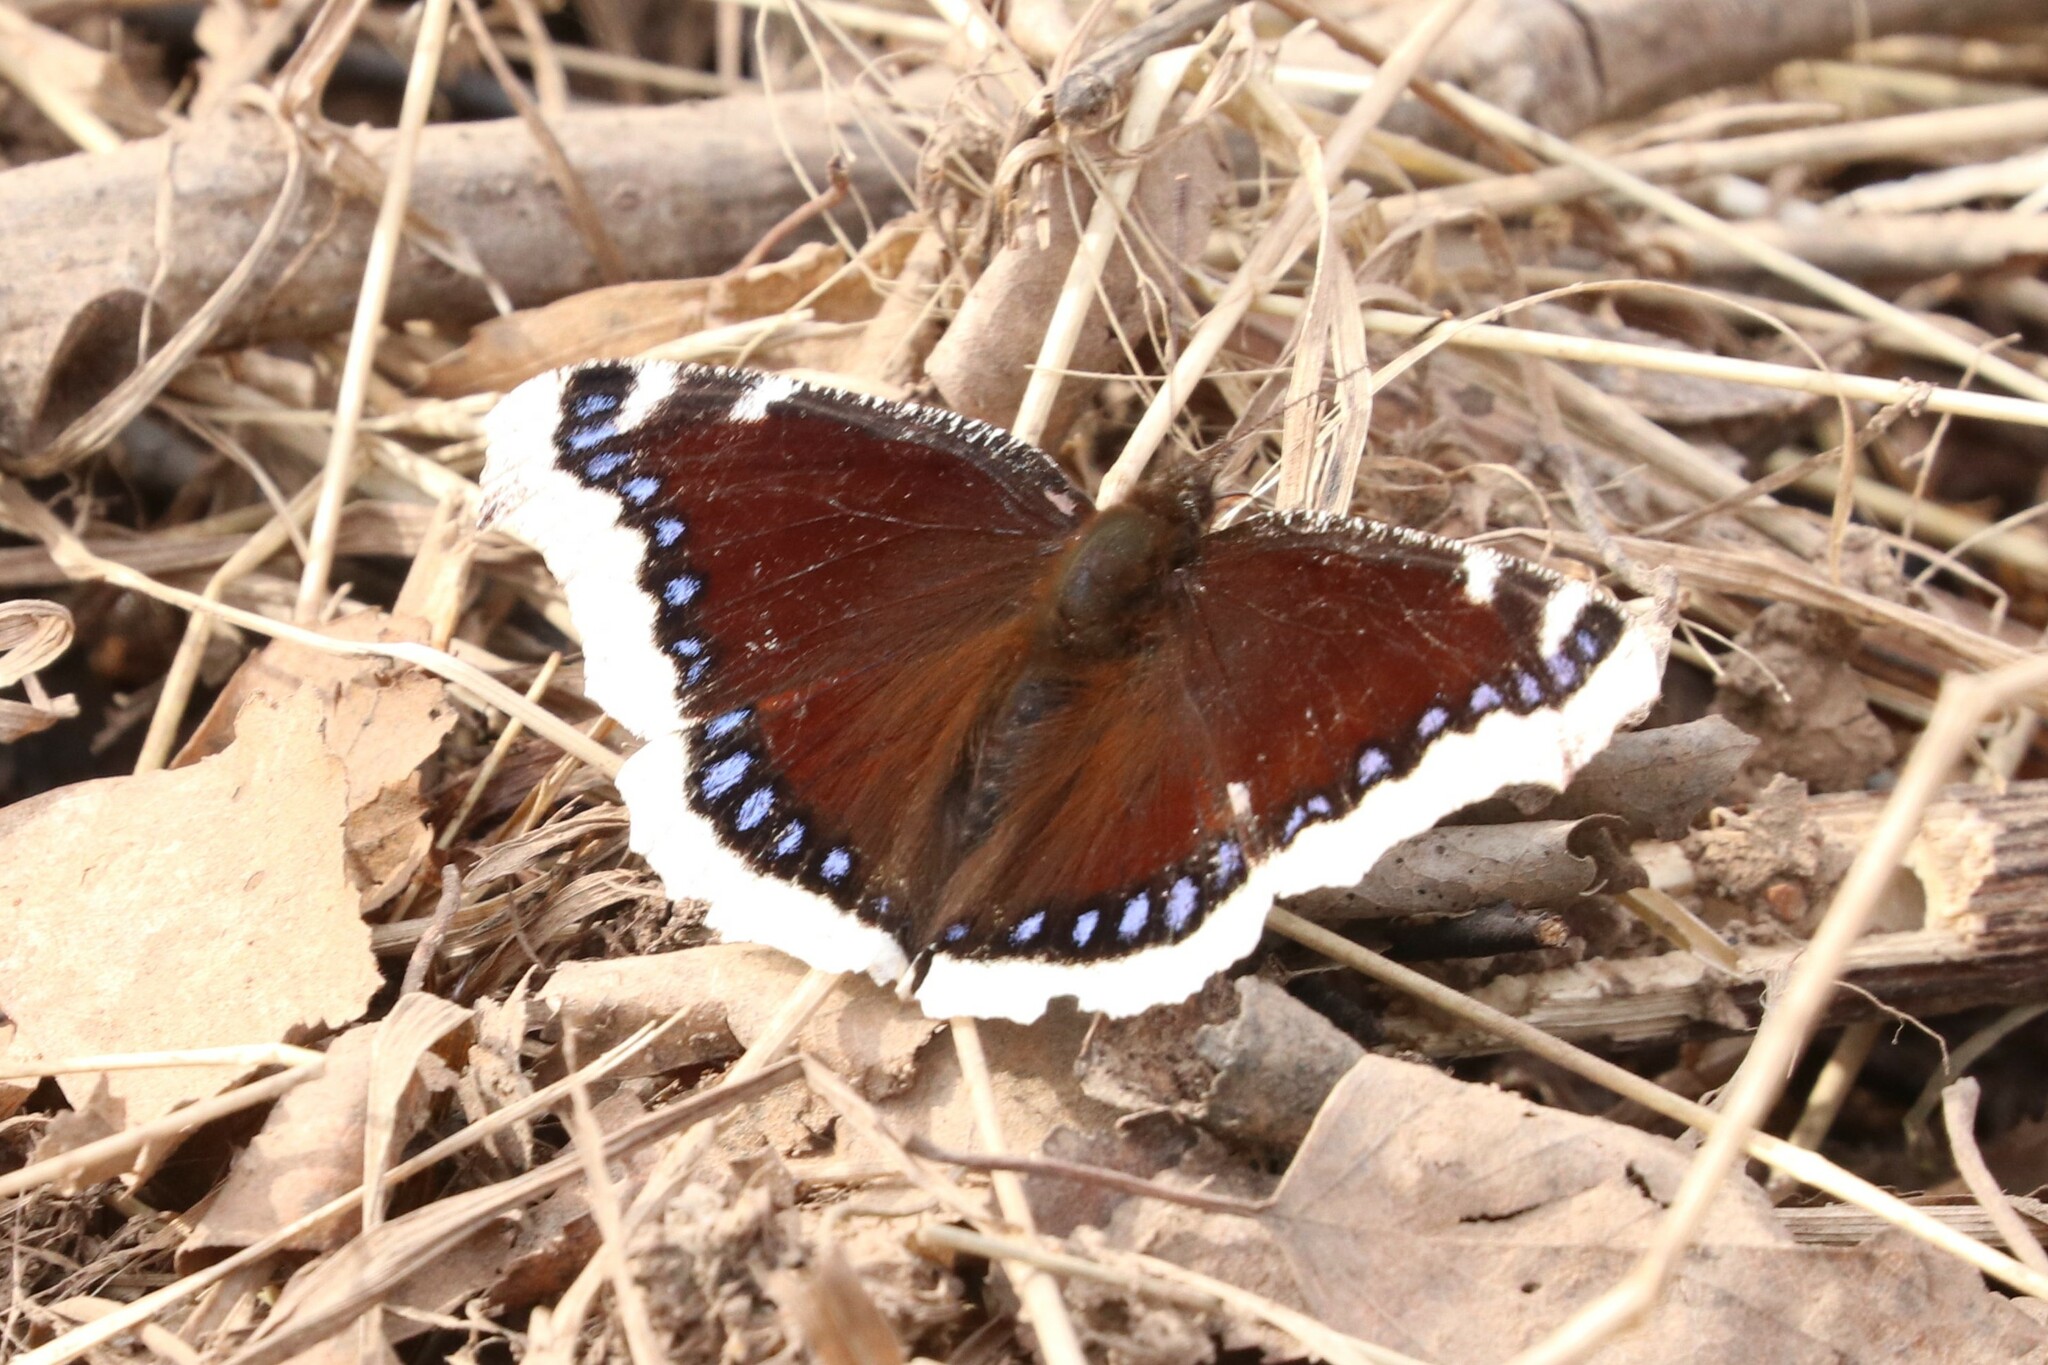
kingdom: Animalia
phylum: Arthropoda
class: Insecta
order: Lepidoptera
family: Nymphalidae
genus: Nymphalis
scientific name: Nymphalis antiopa
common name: Camberwell beauty
